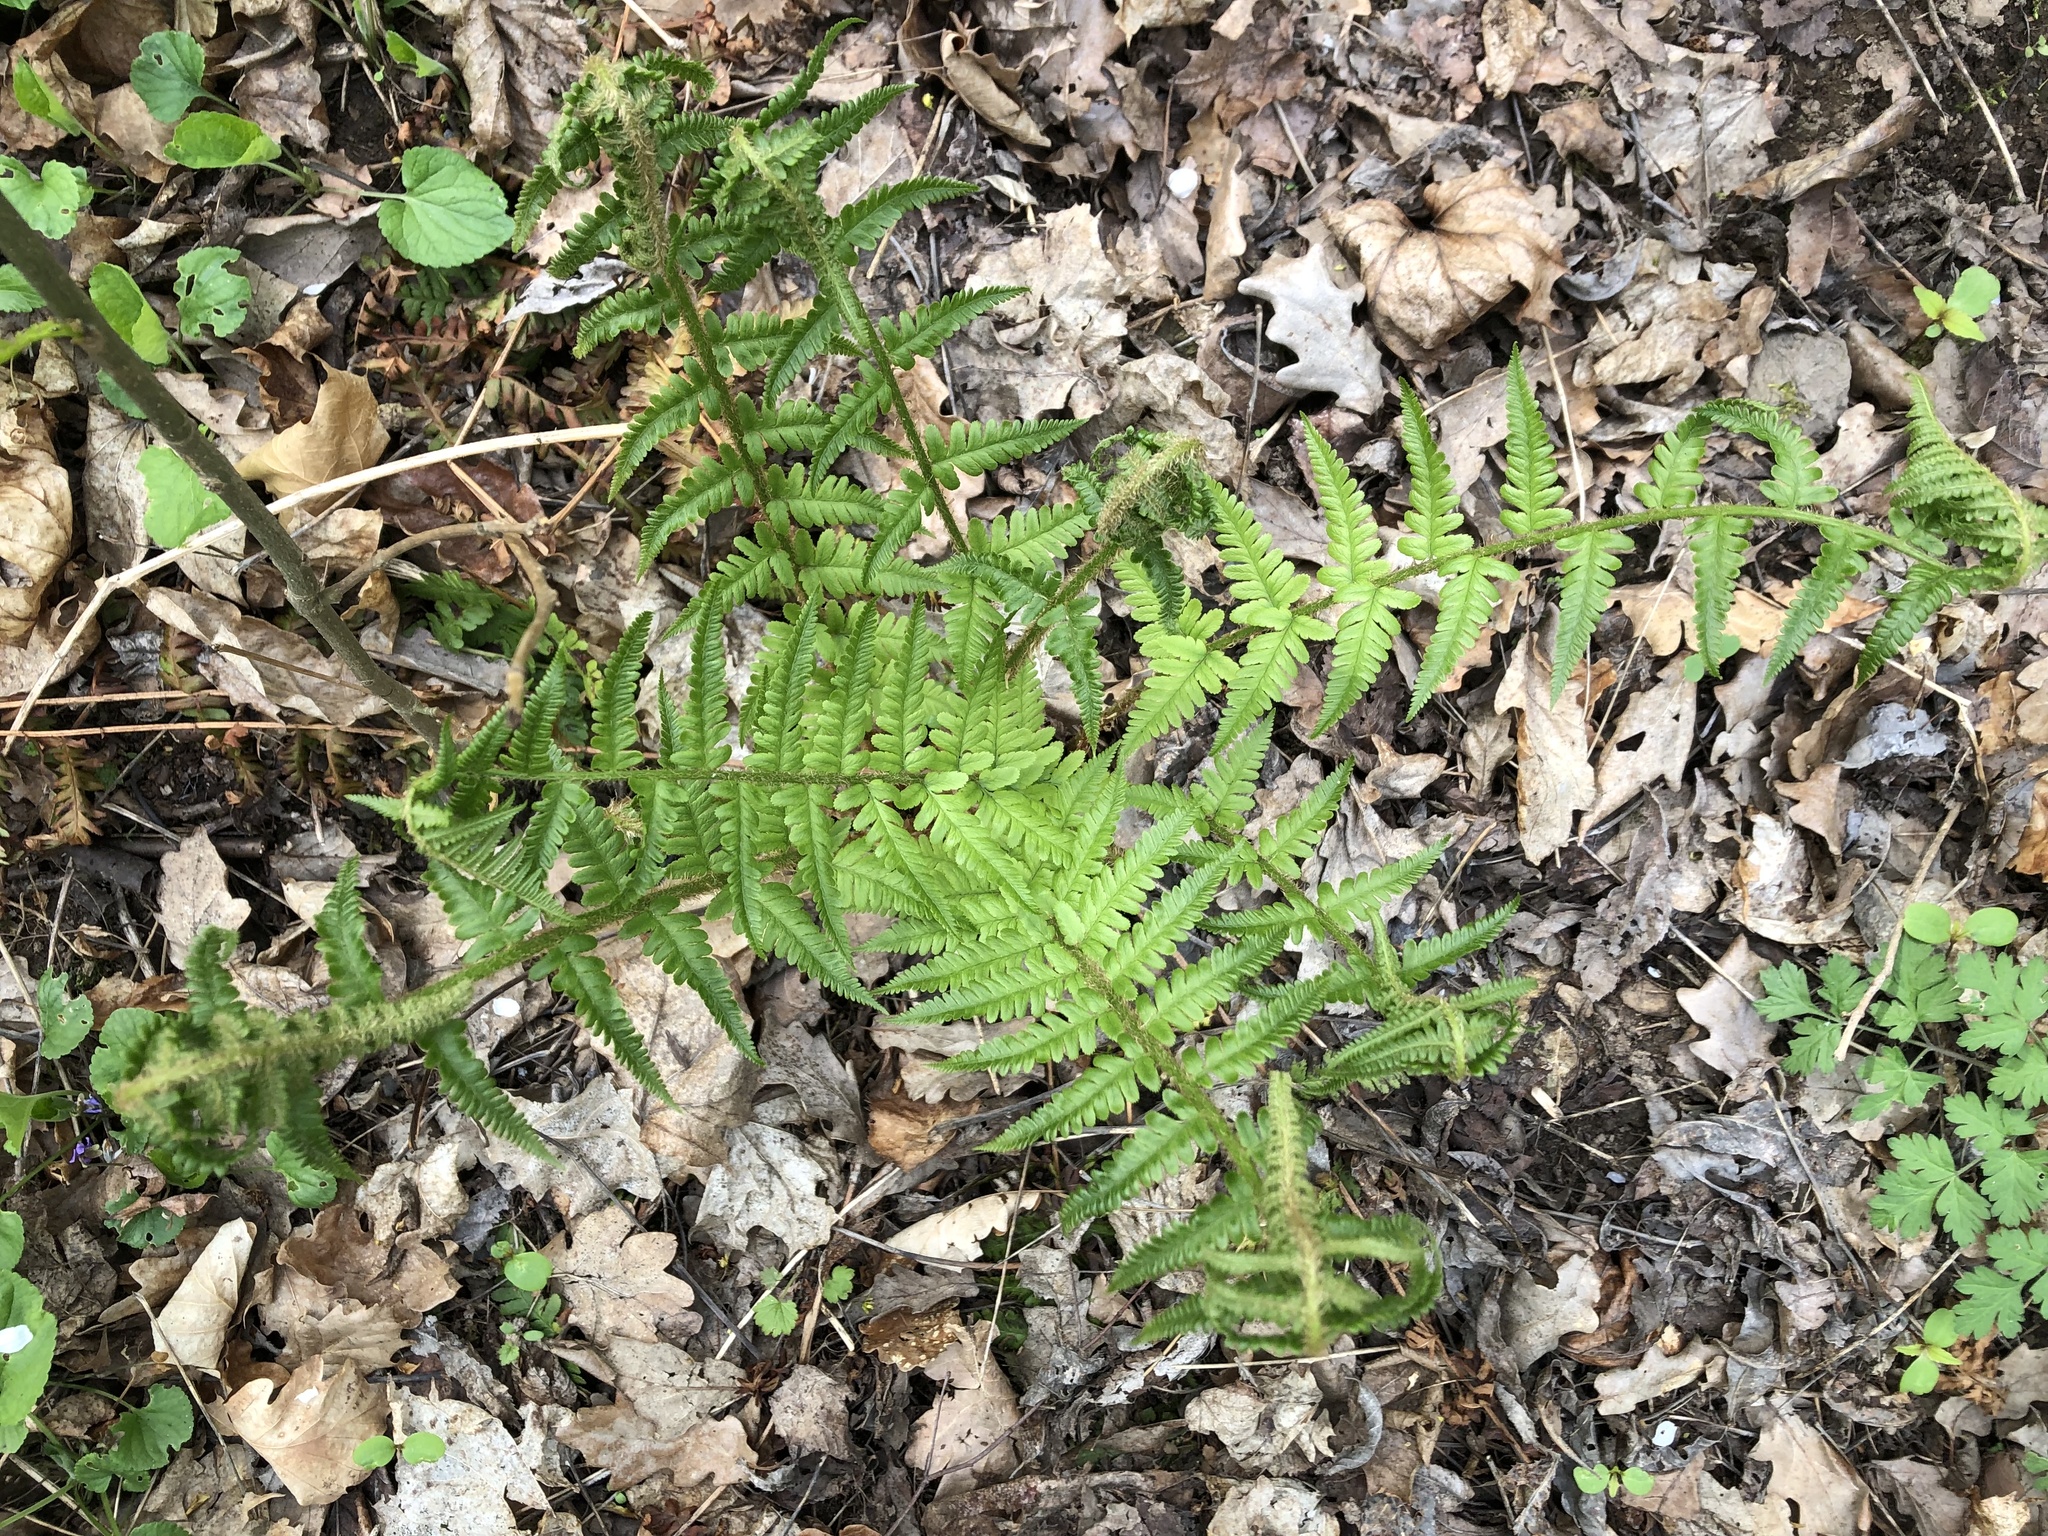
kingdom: Plantae
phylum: Tracheophyta
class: Polypodiopsida
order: Polypodiales
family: Dryopteridaceae
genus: Dryopteris
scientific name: Dryopteris filix-mas
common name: Male fern
